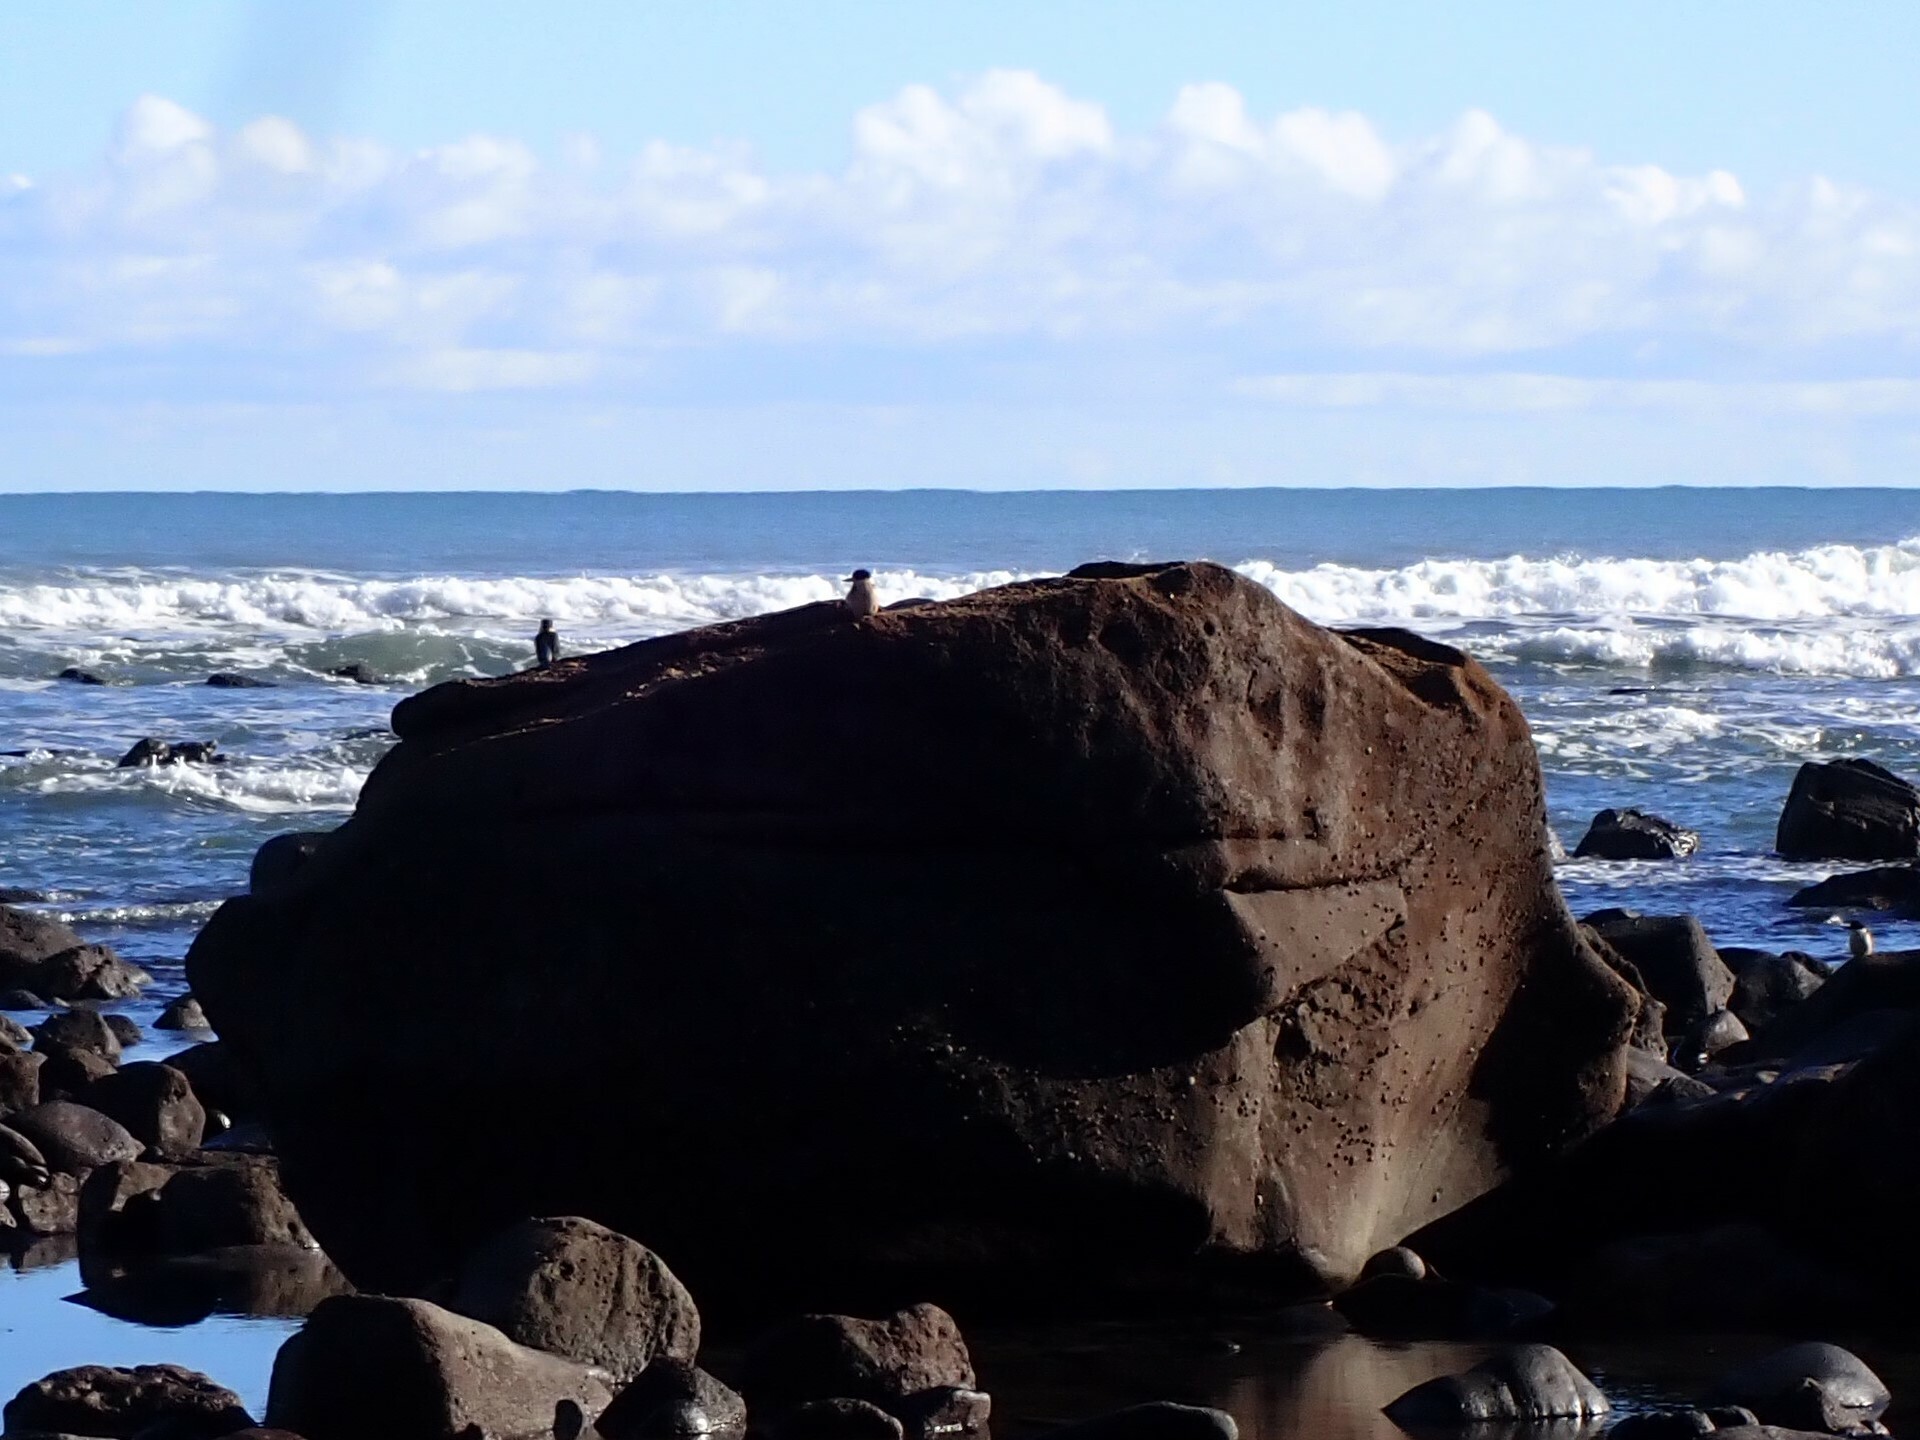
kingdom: Animalia
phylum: Chordata
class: Aves
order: Coraciiformes
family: Alcedinidae
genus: Todiramphus
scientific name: Todiramphus sanctus
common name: Sacred kingfisher
